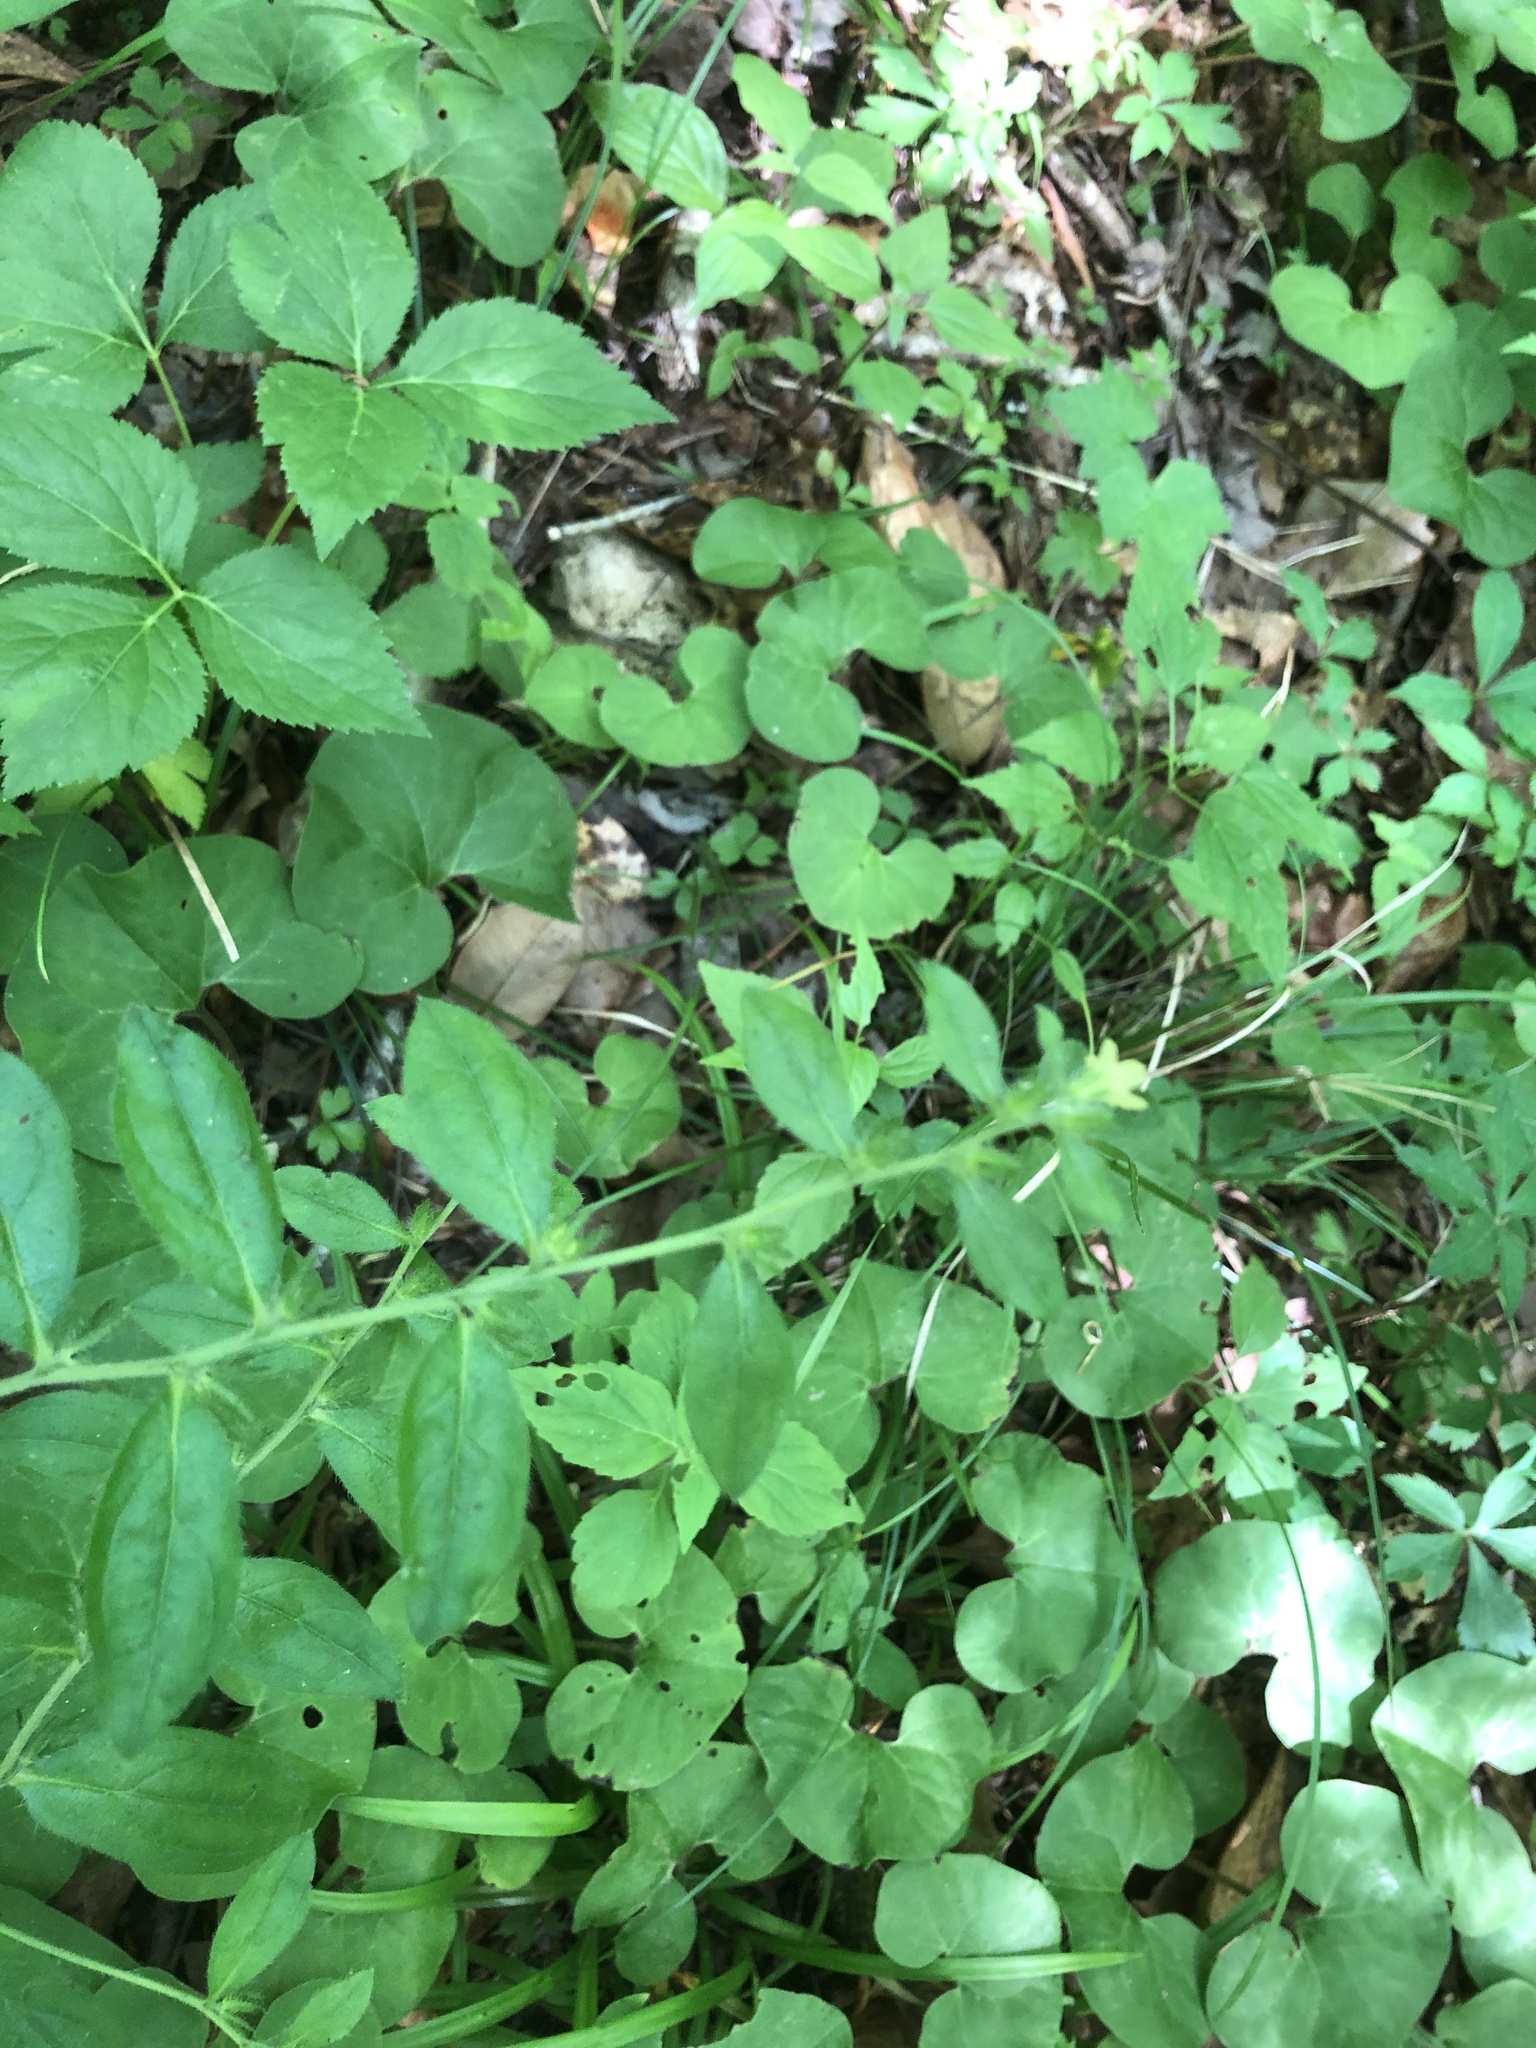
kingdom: Plantae
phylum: Tracheophyta
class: Magnoliopsida
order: Boraginales
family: Boraginaceae
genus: Lithospermum
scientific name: Lithospermum tuberosum
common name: Southern stoneseed
